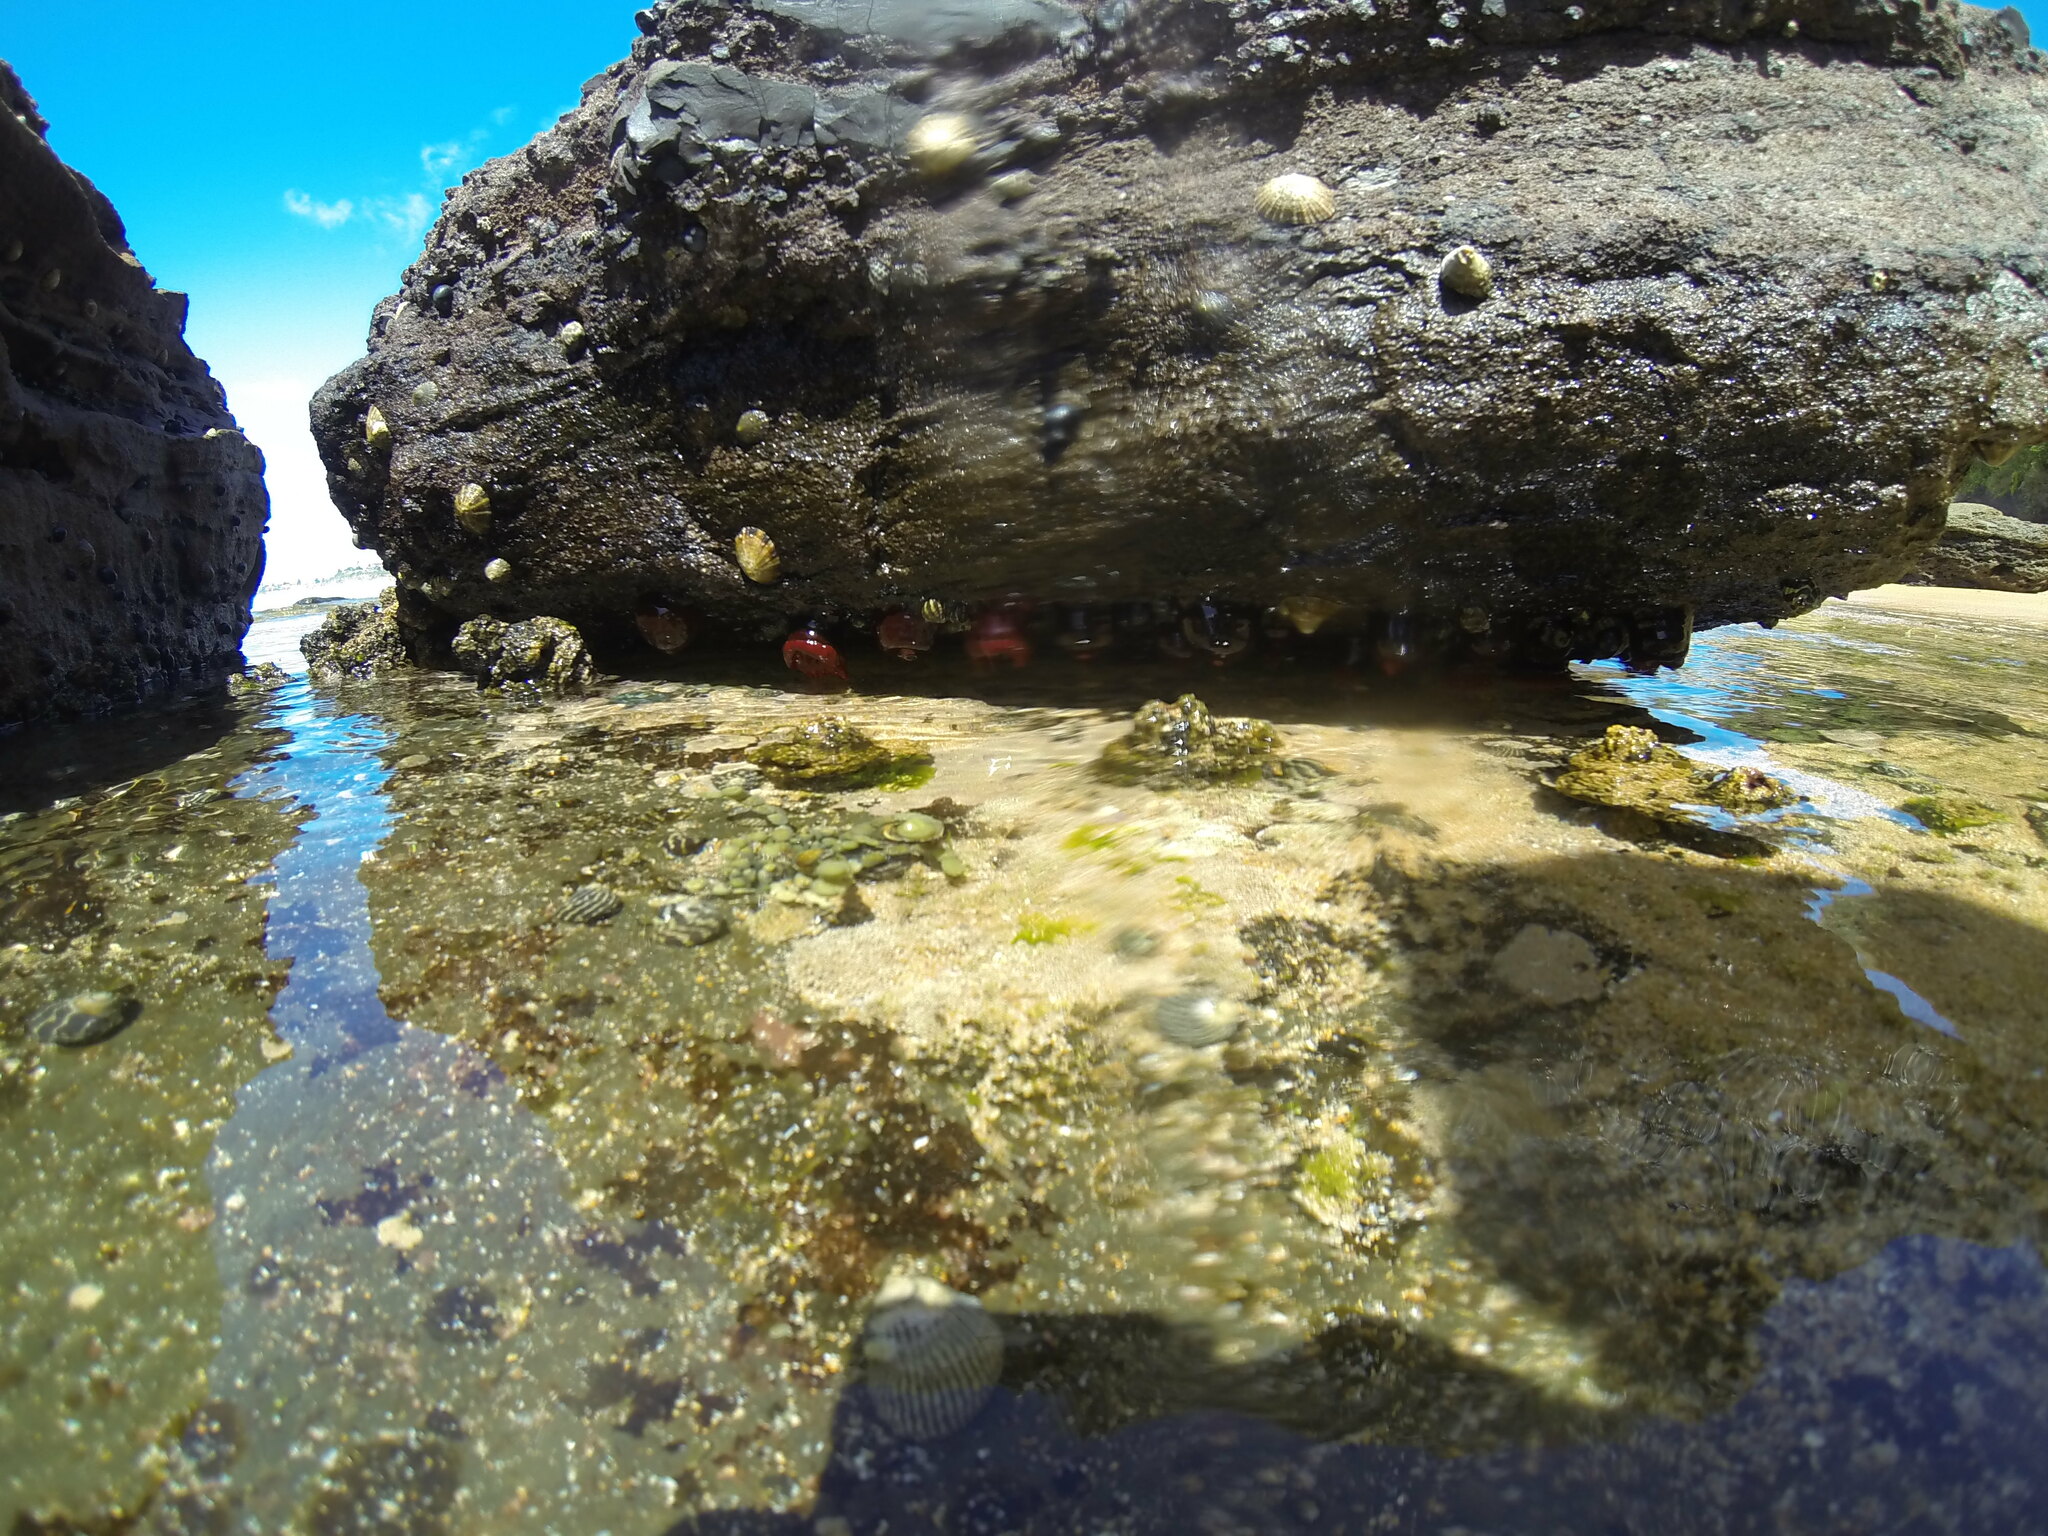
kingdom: Animalia
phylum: Mollusca
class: Gastropoda
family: Nacellidae
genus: Cellana
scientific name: Cellana tramoserica
